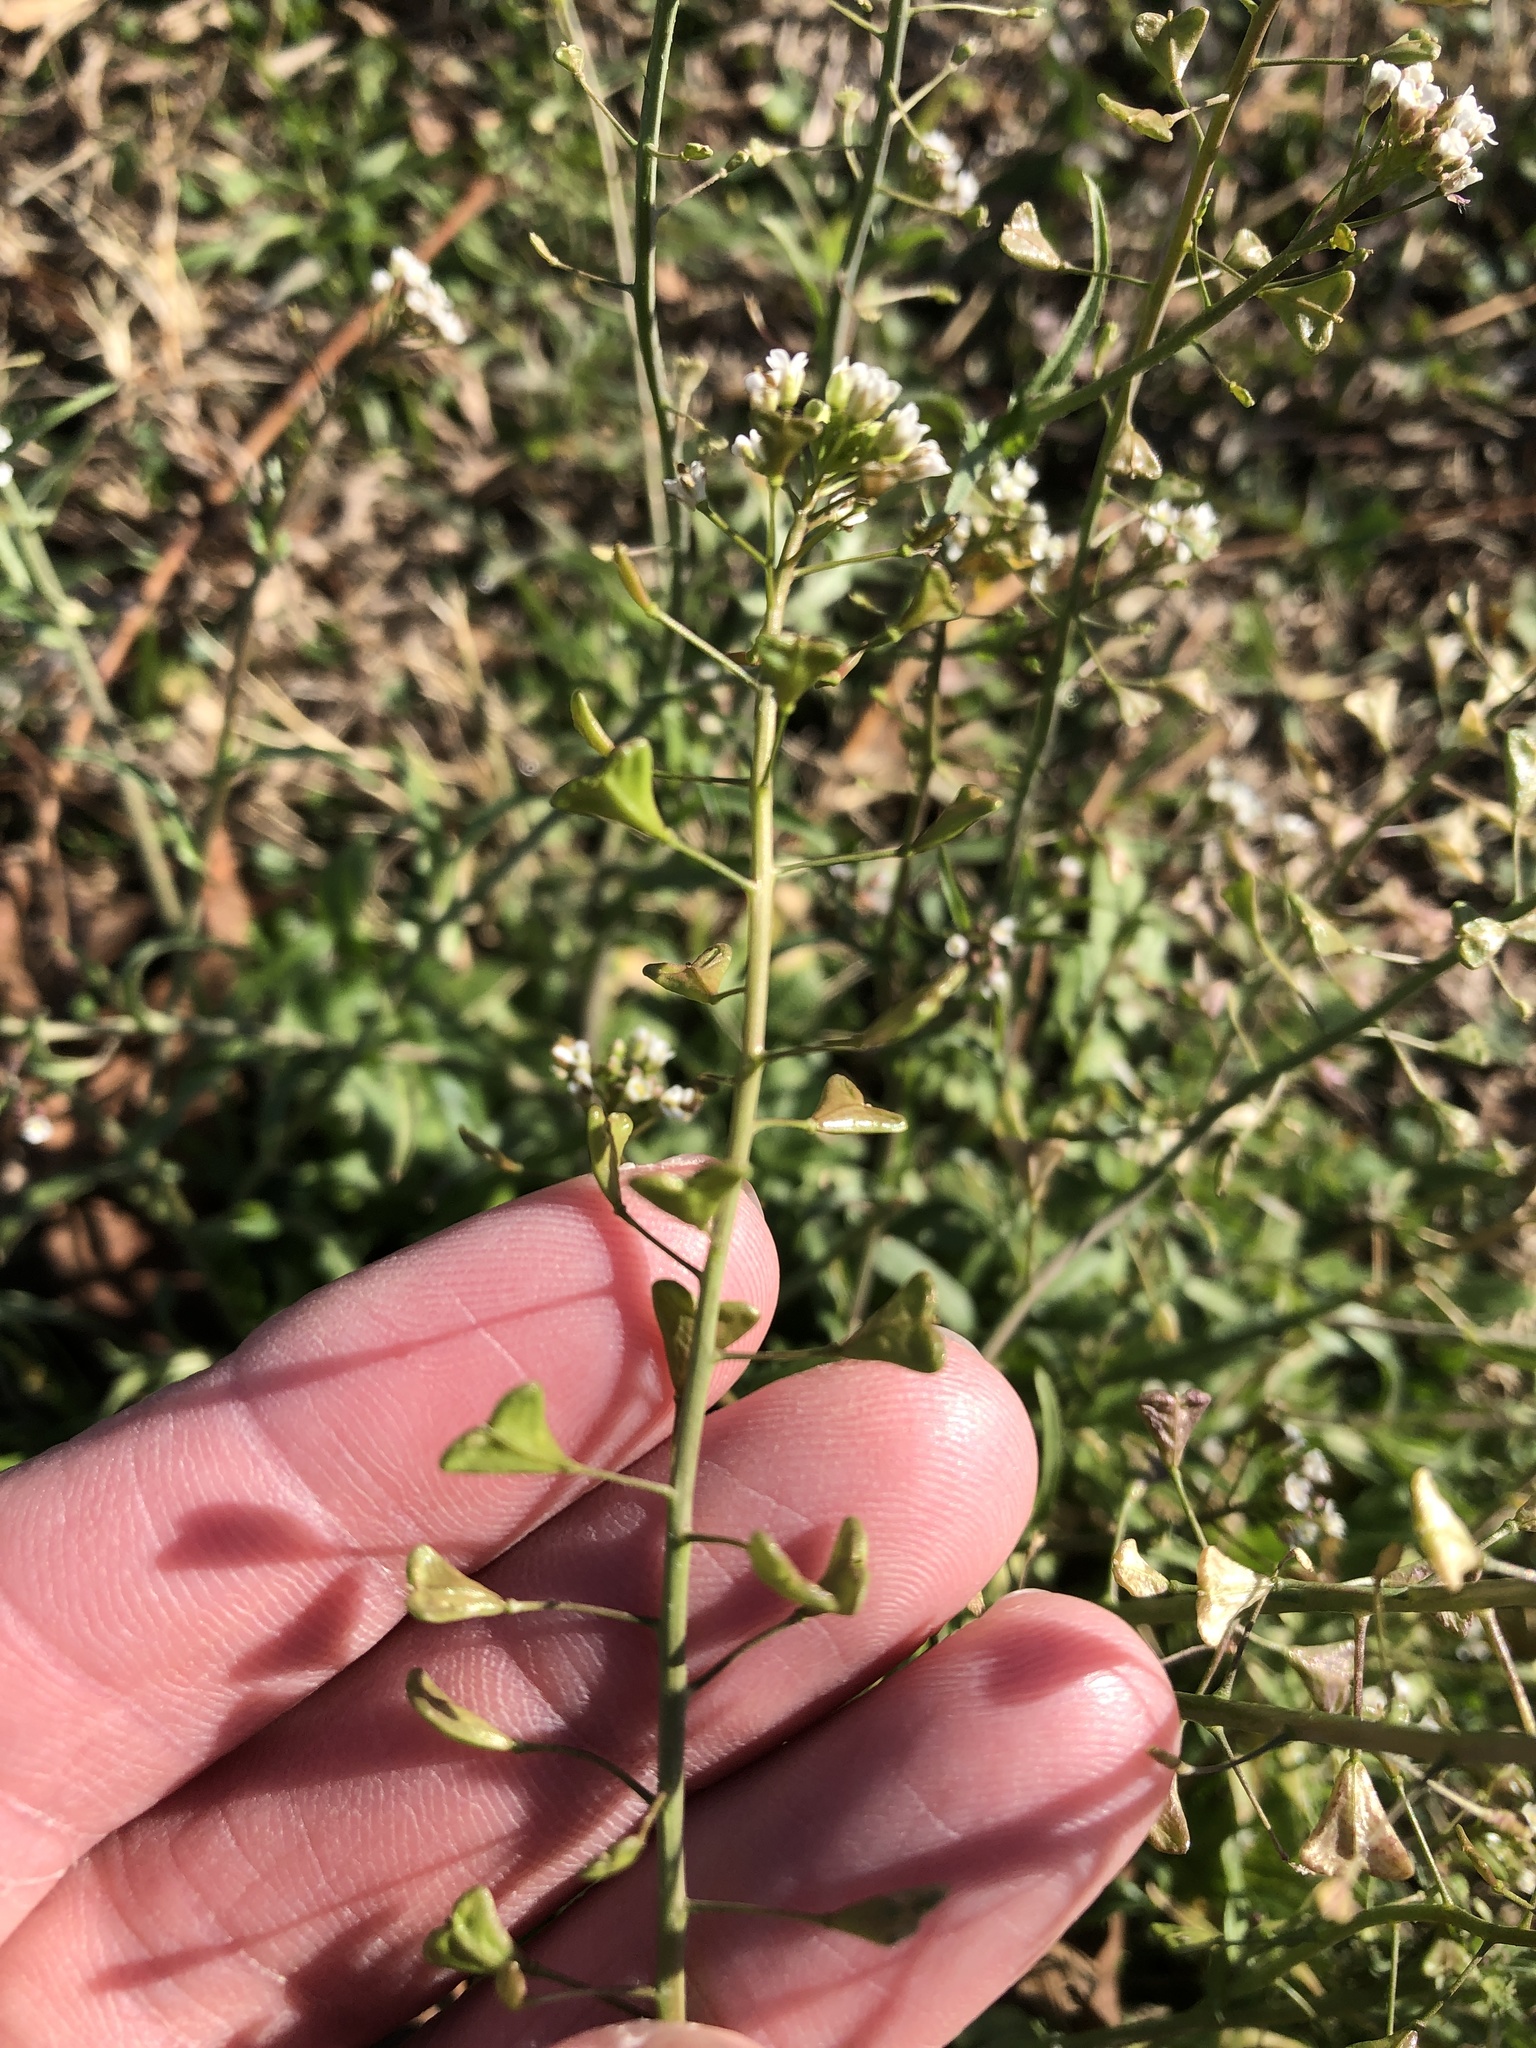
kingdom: Plantae
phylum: Tracheophyta
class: Magnoliopsida
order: Brassicales
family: Brassicaceae
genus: Capsella
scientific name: Capsella bursa-pastoris
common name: Shepherd's purse
